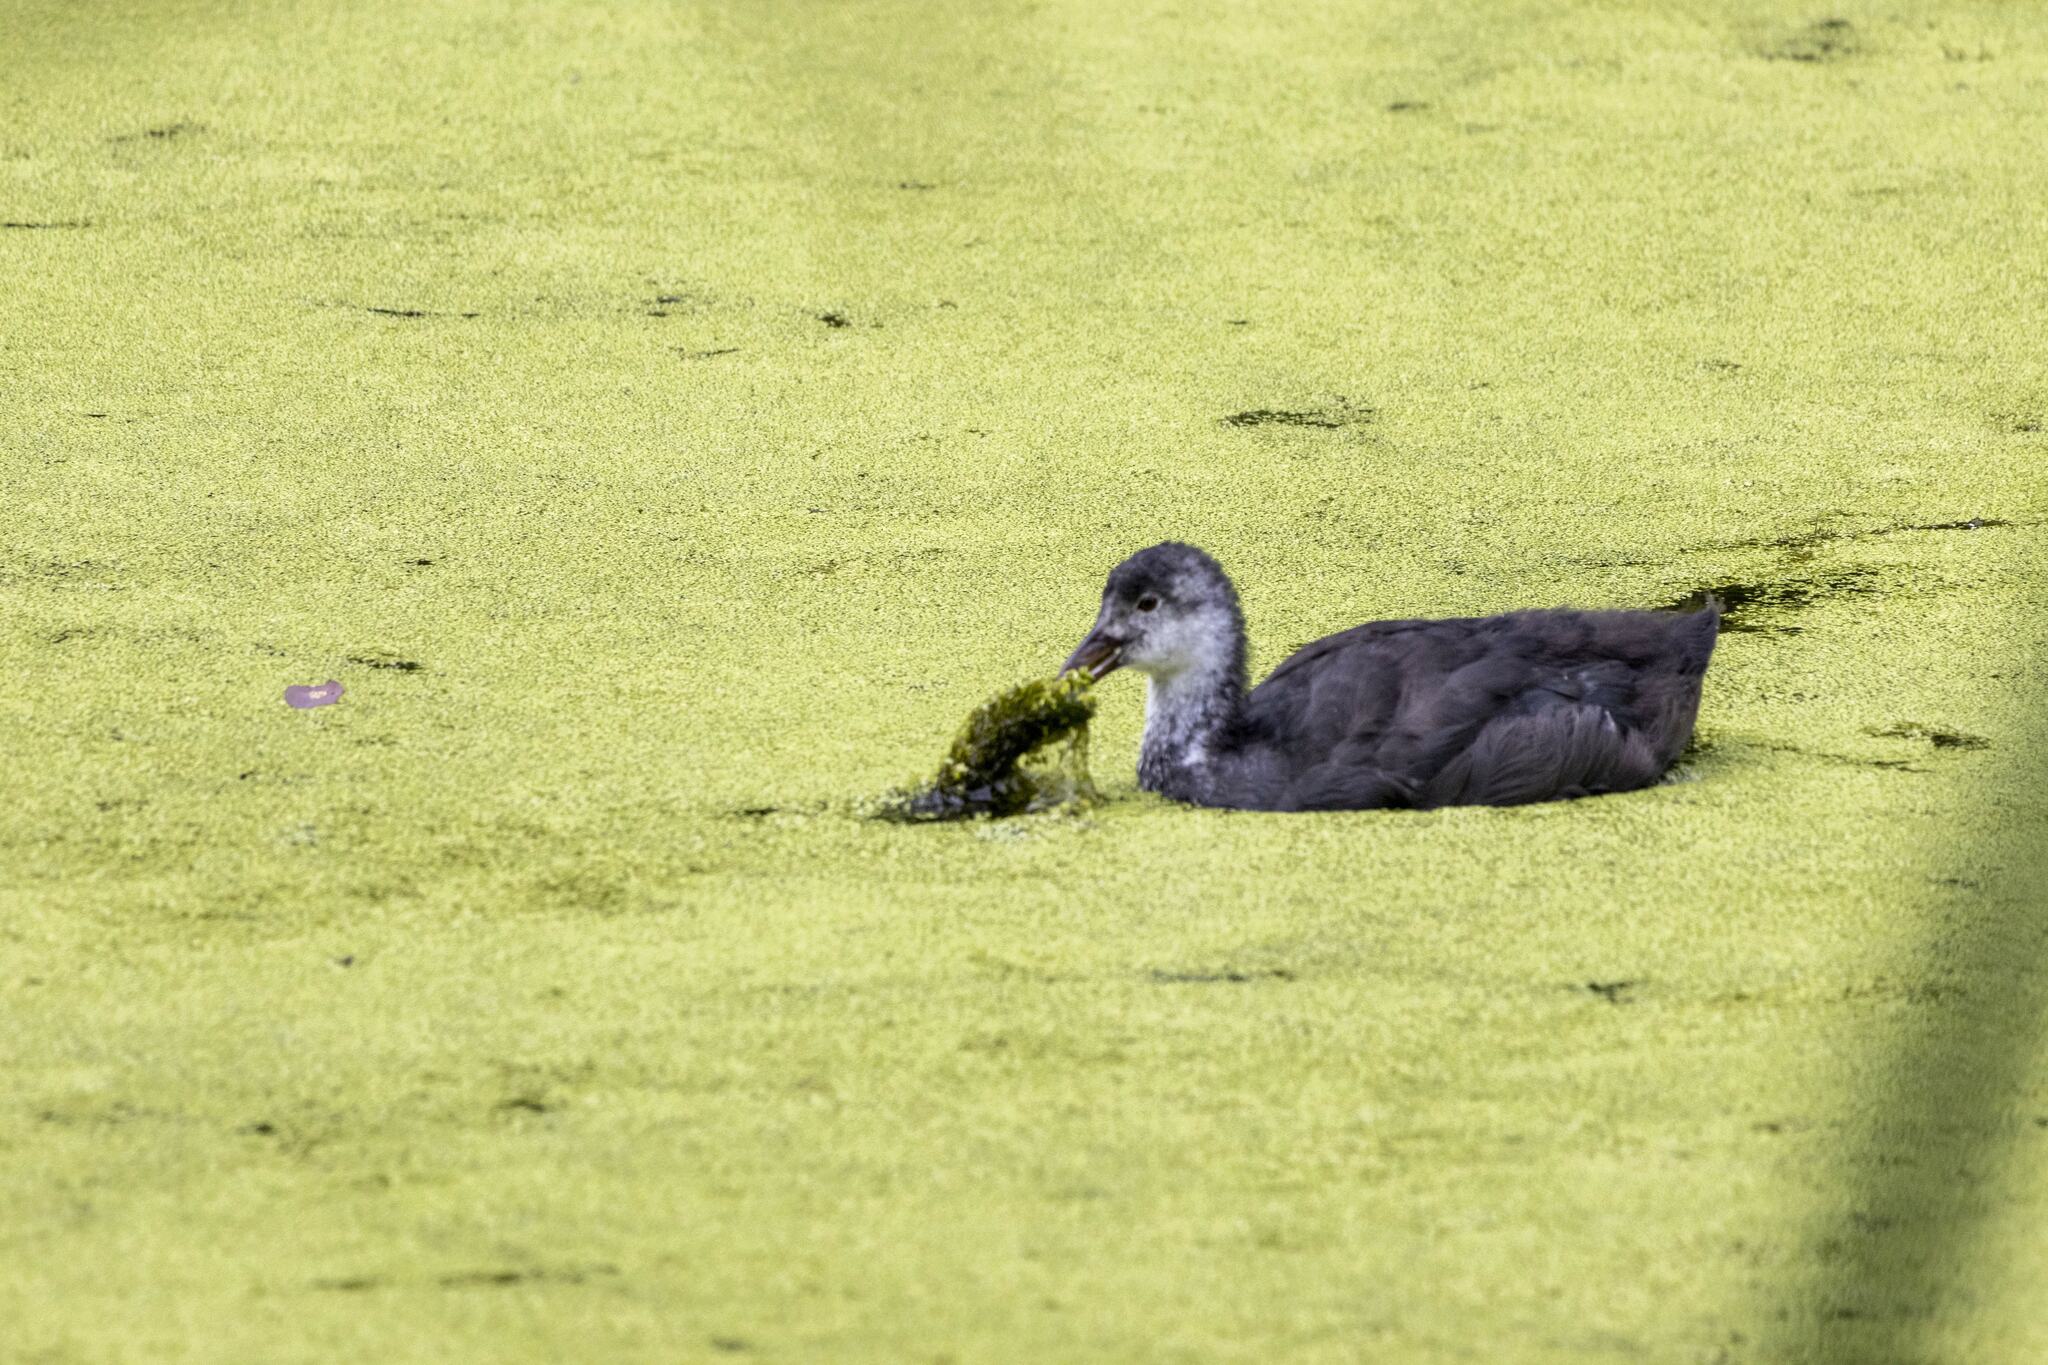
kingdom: Animalia
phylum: Chordata
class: Aves
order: Gruiformes
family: Rallidae
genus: Fulica
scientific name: Fulica atra
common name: Eurasian coot
